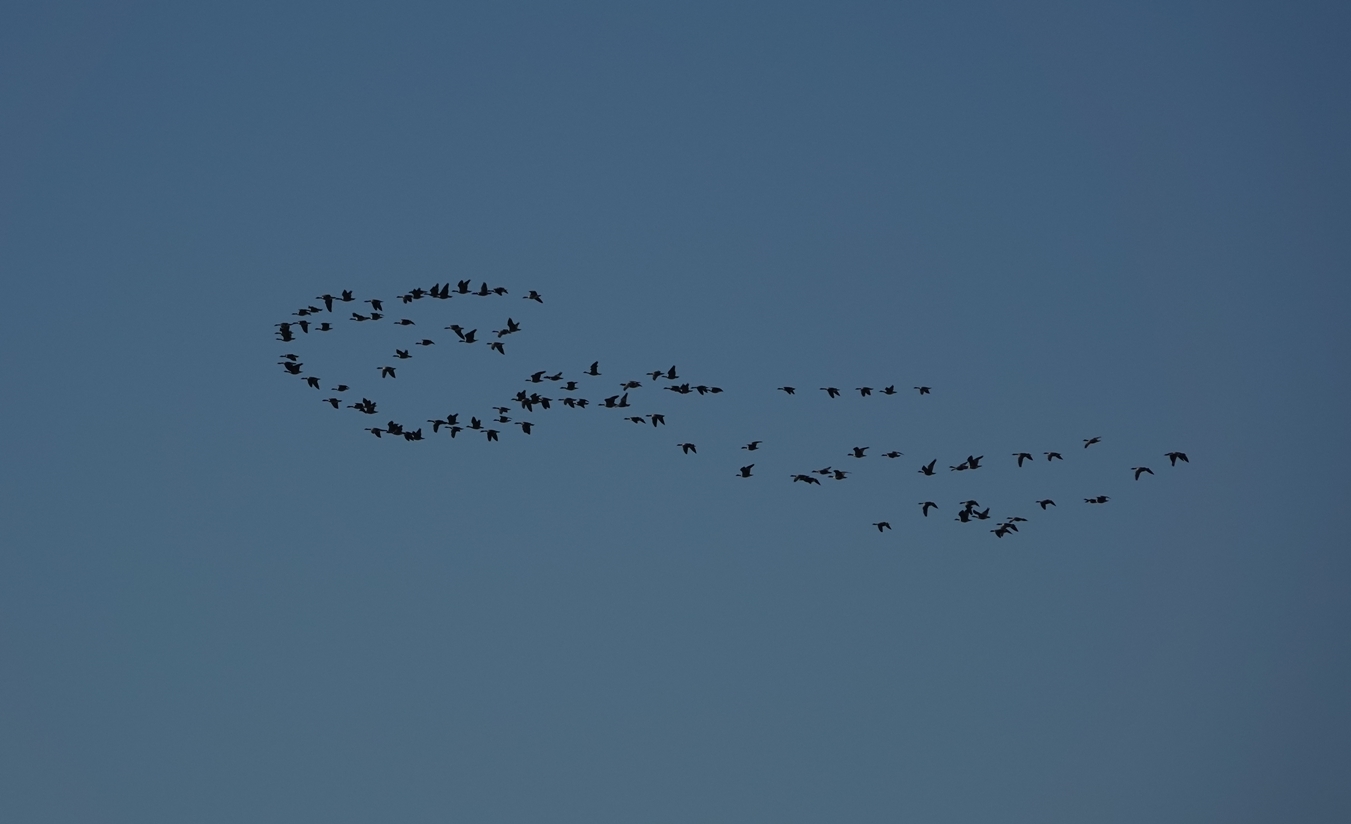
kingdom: Animalia
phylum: Chordata
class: Aves
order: Anseriformes
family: Anatidae
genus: Branta
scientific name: Branta canadensis
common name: Canada goose
